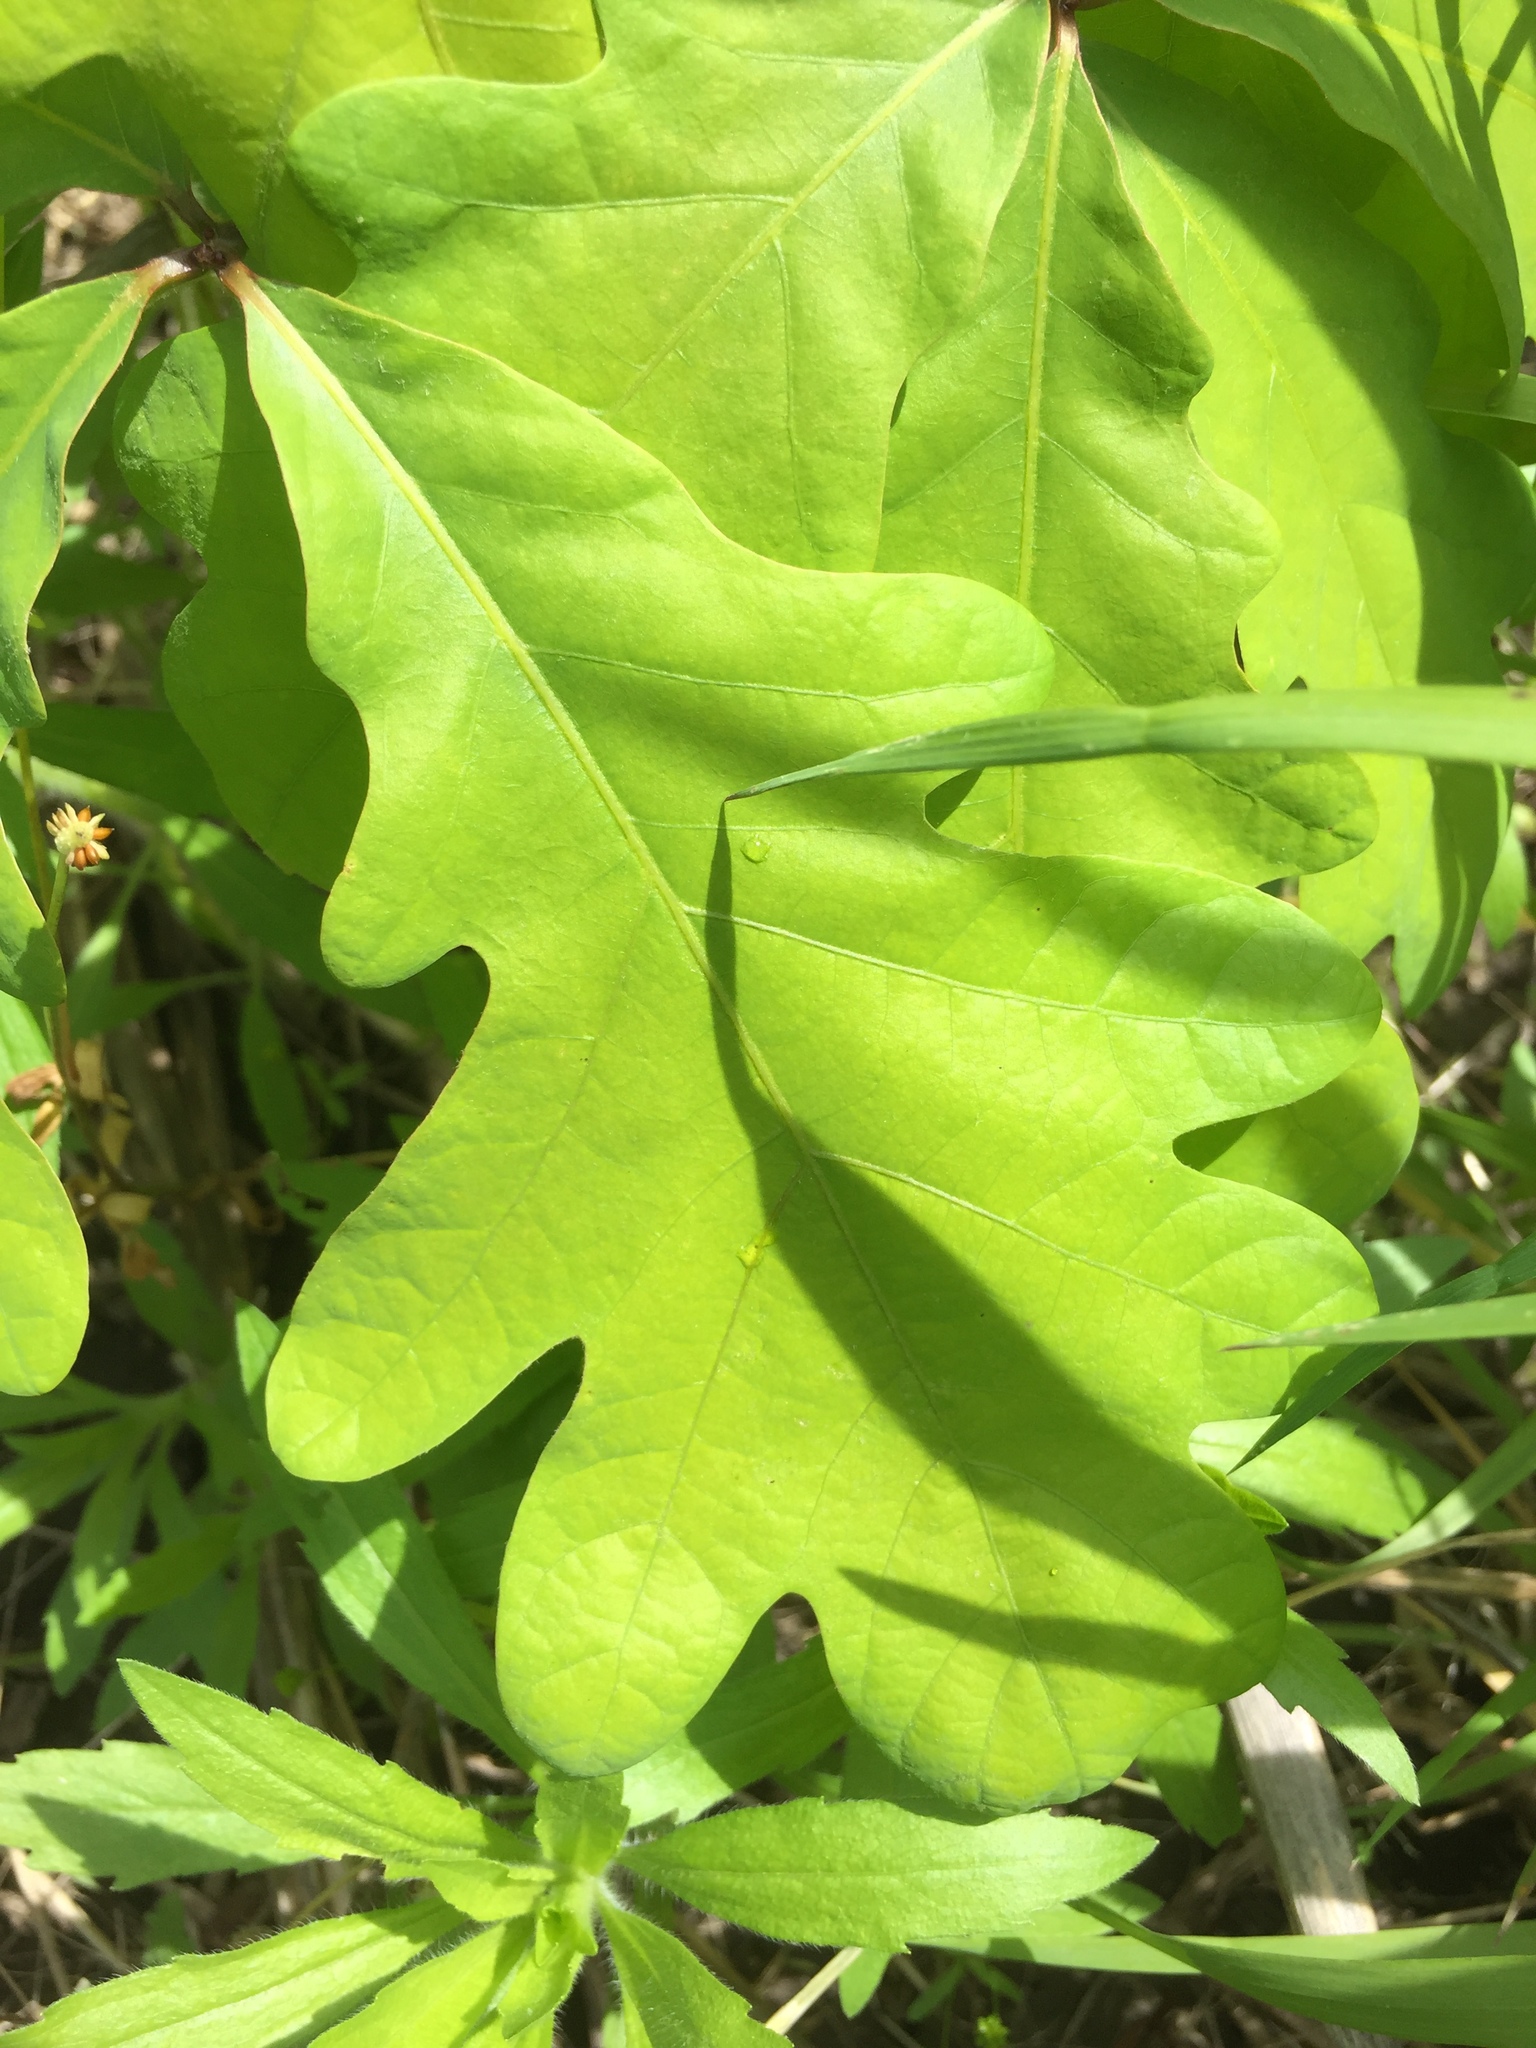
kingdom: Plantae
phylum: Tracheophyta
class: Magnoliopsida
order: Fagales
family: Fagaceae
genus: Quercus
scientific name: Quercus alba
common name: White oak
